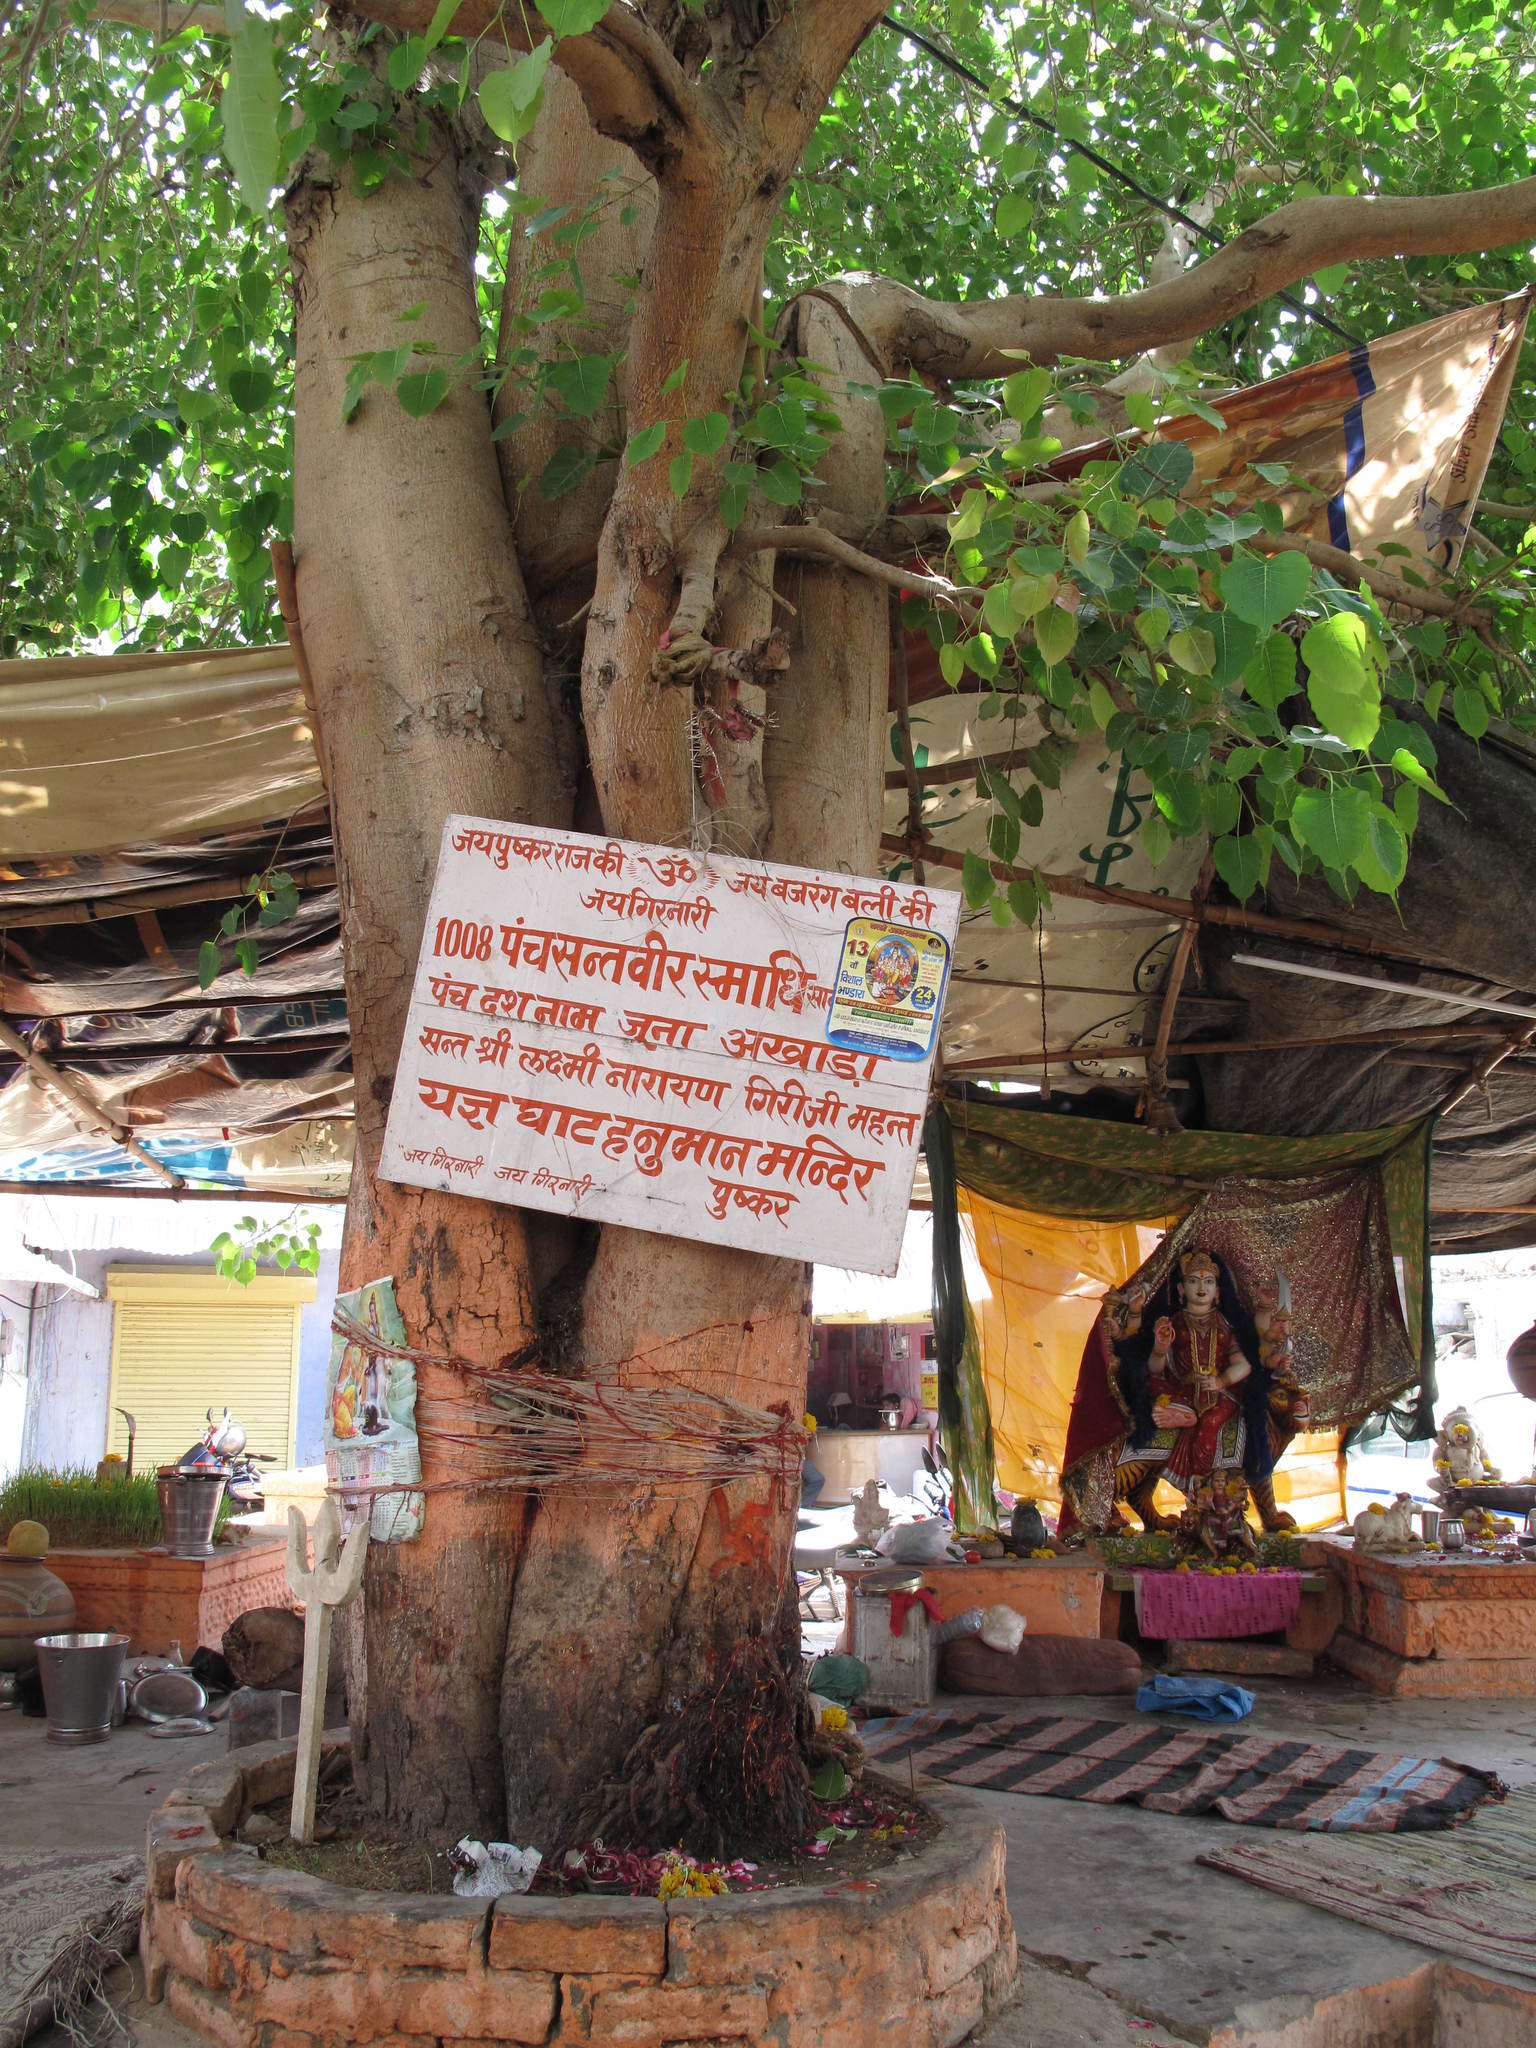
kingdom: Plantae
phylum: Tracheophyta
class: Magnoliopsida
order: Rosales
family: Moraceae
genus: Ficus
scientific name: Ficus religiosa
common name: Bodhi tree
